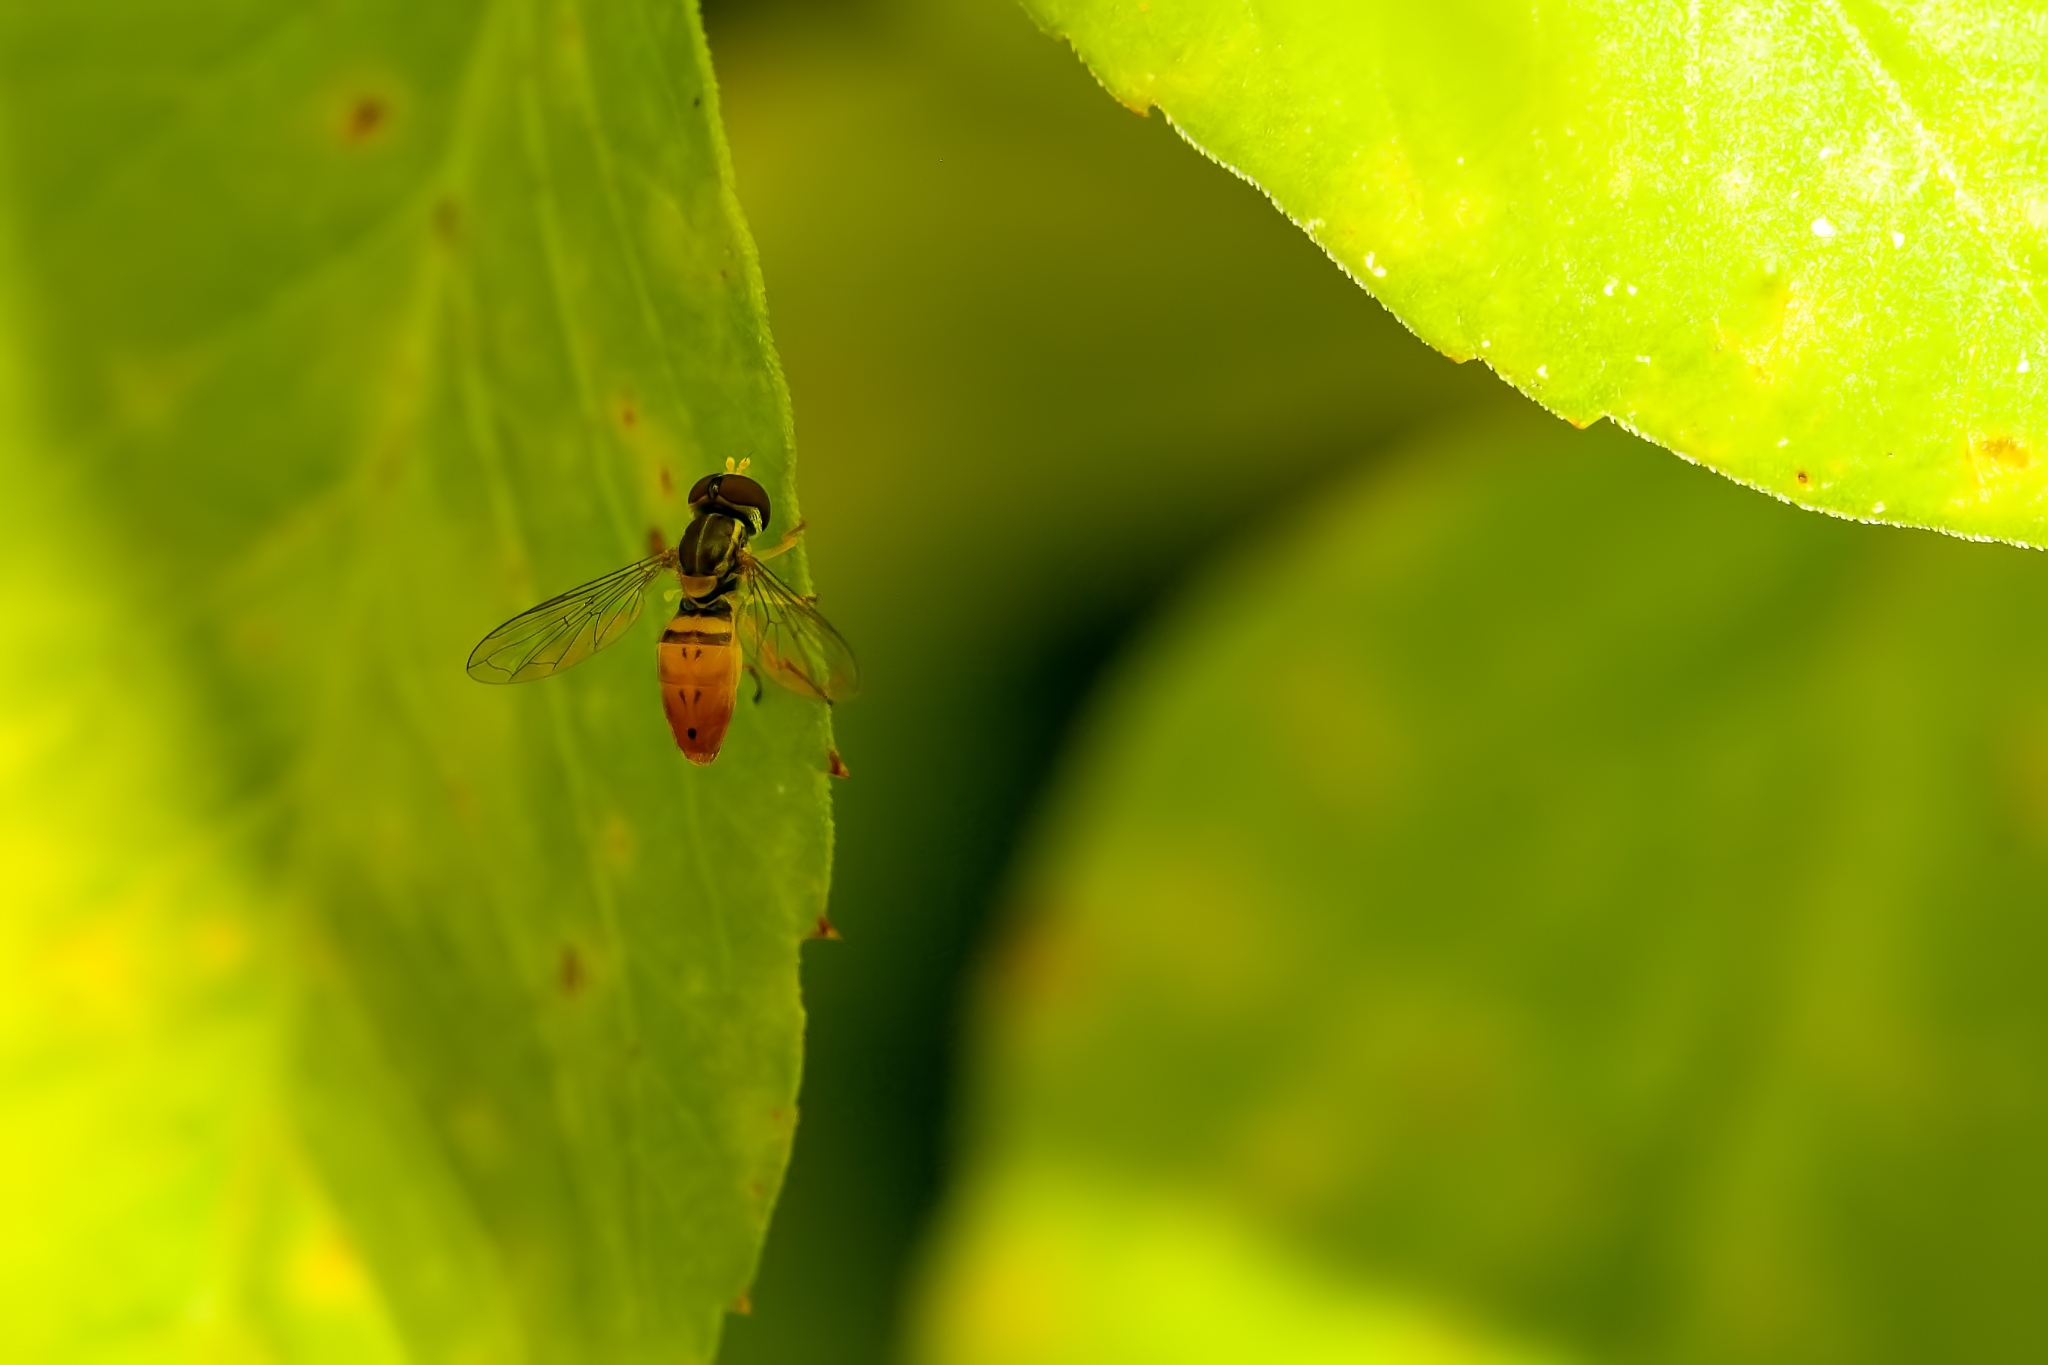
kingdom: Animalia
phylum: Arthropoda
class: Insecta
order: Diptera
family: Syrphidae
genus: Toxomerus
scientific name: Toxomerus marginatus
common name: Syrphid fly
